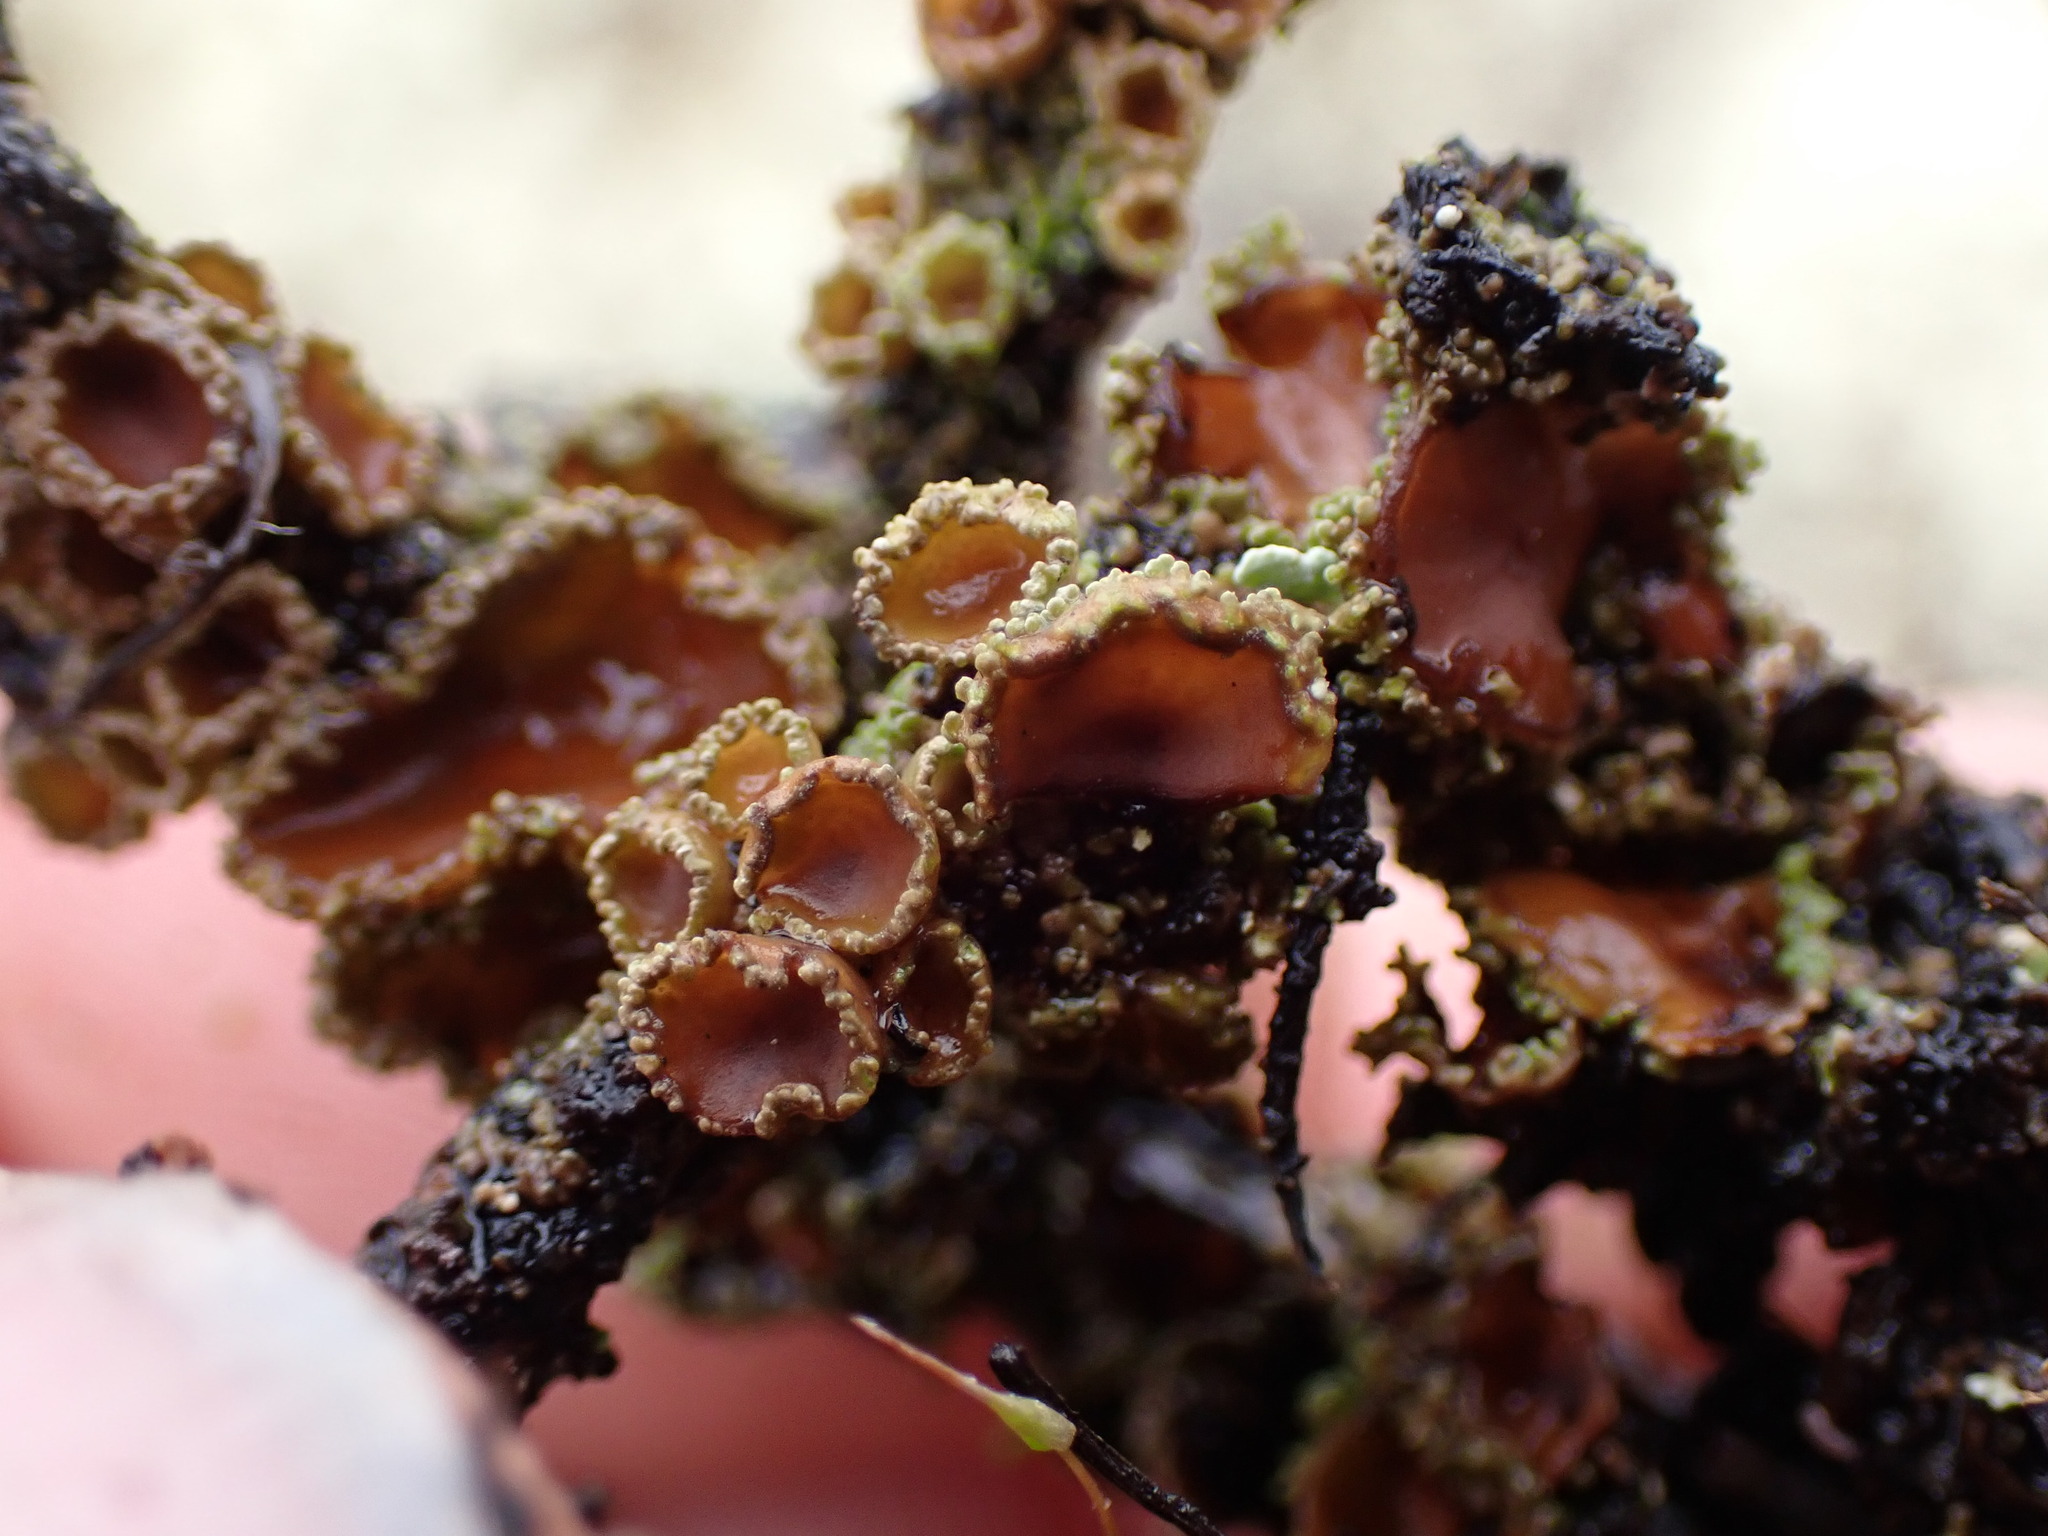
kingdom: Fungi
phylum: Ascomycota
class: Lecanoromycetes
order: Peltigerales
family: Pannariaceae
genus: Psoroma
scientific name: Psoroma hypnorum
